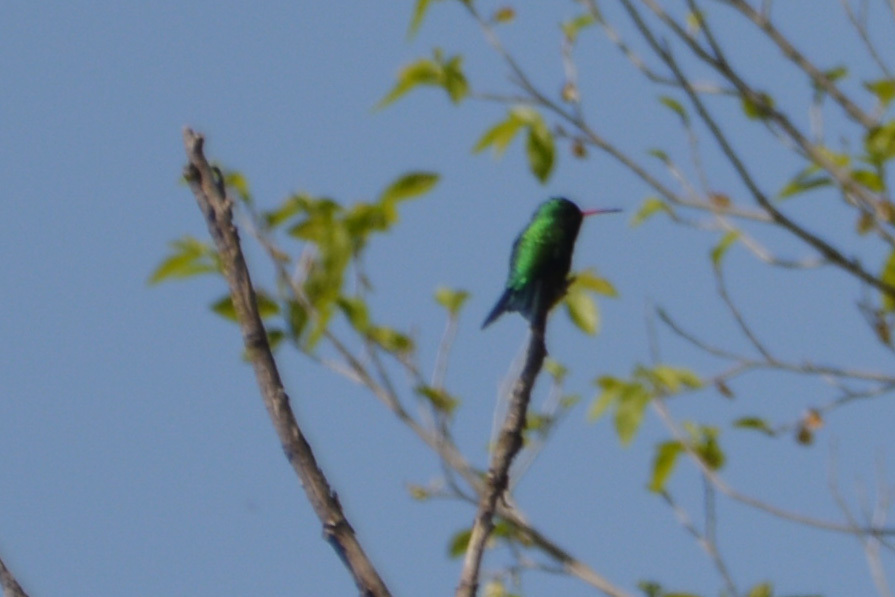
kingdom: Animalia
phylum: Chordata
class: Aves
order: Apodiformes
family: Trochilidae
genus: Chlorostilbon
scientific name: Chlorostilbon lucidus
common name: Glittering-bellied emerald
